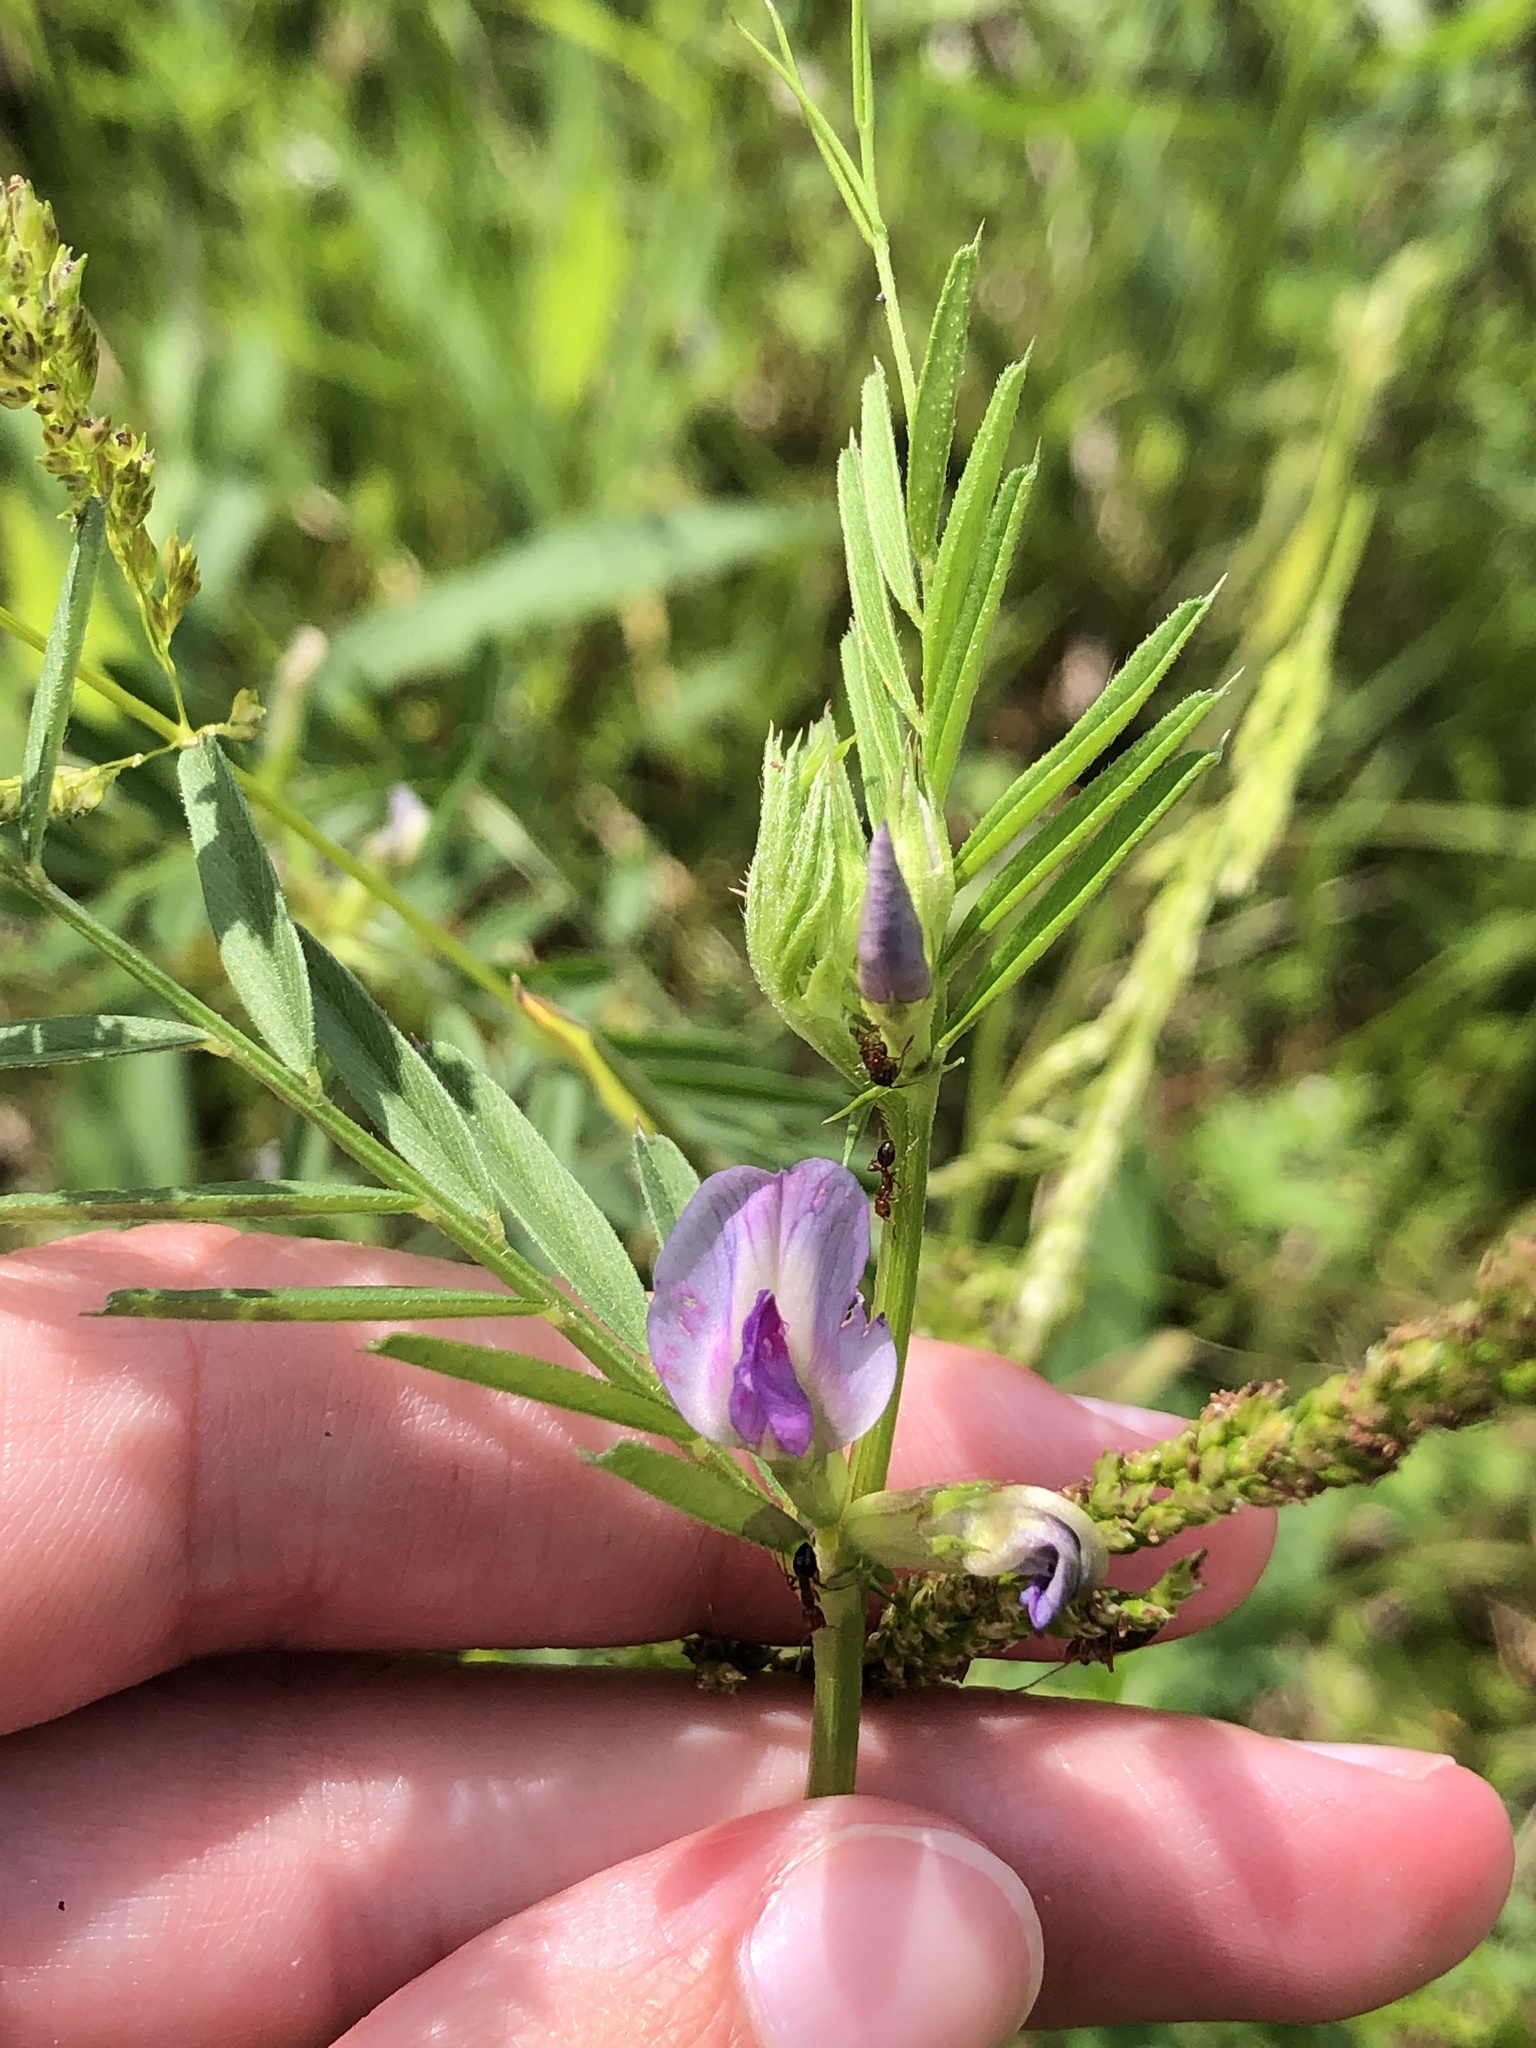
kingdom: Plantae
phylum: Tracheophyta
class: Magnoliopsida
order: Fabales
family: Fabaceae
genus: Vicia
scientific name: Vicia sativa
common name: Garden vetch
